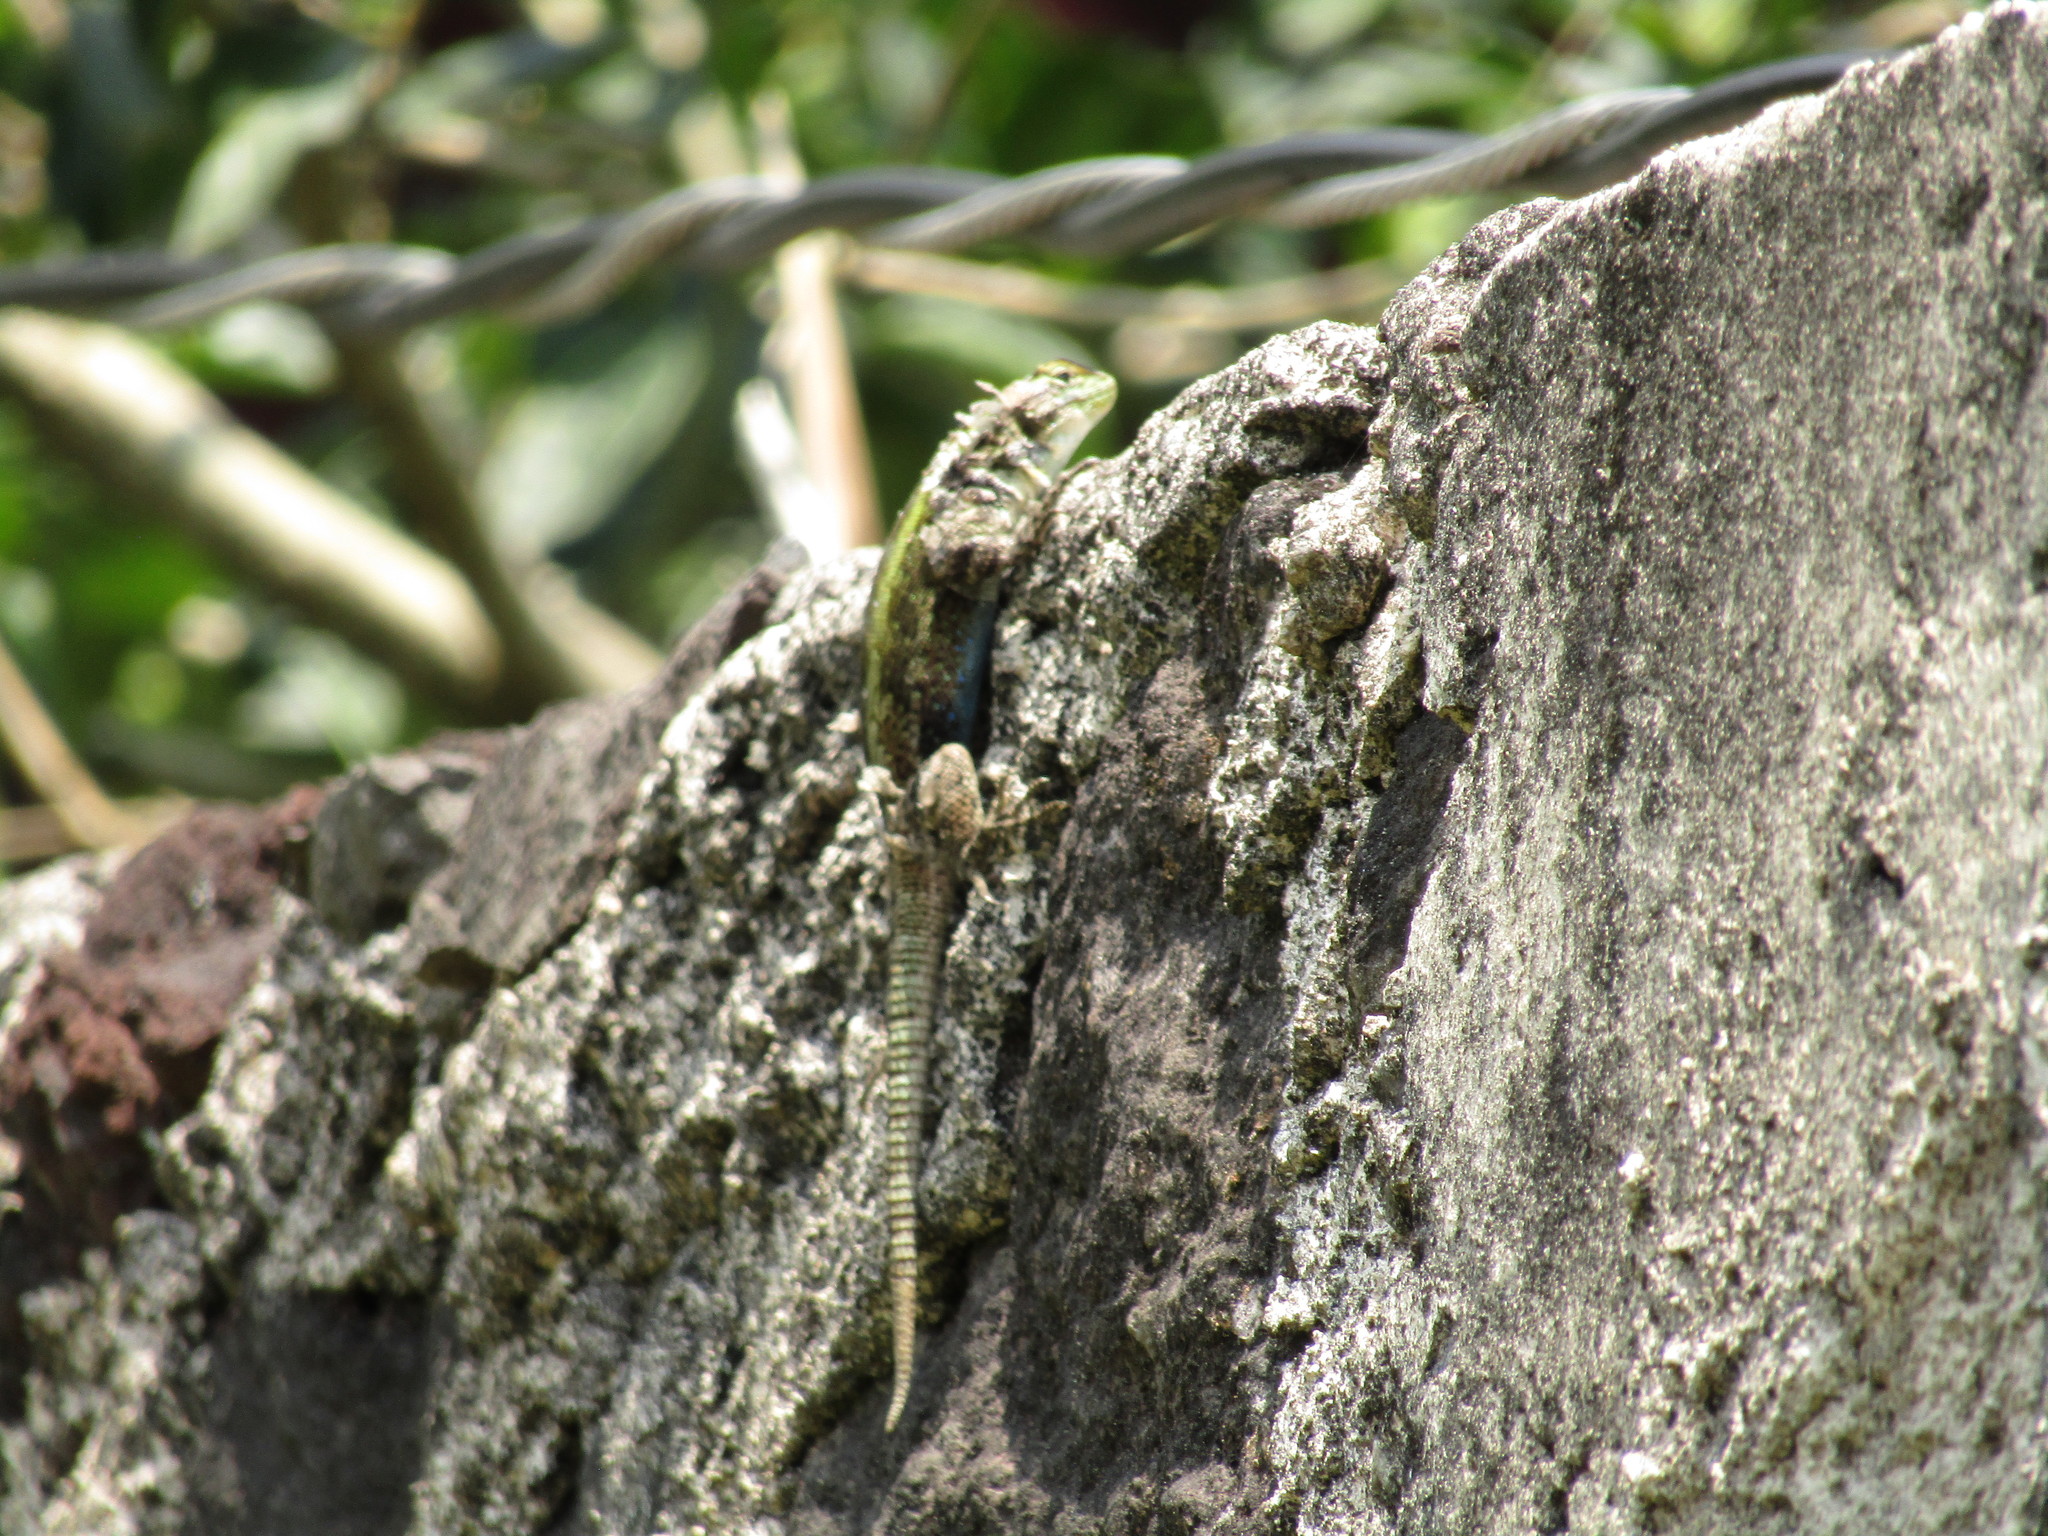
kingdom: Animalia
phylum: Chordata
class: Squamata
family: Phrynosomatidae
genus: Sceloporus
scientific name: Sceloporus grammicus
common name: Mesquite lizard
